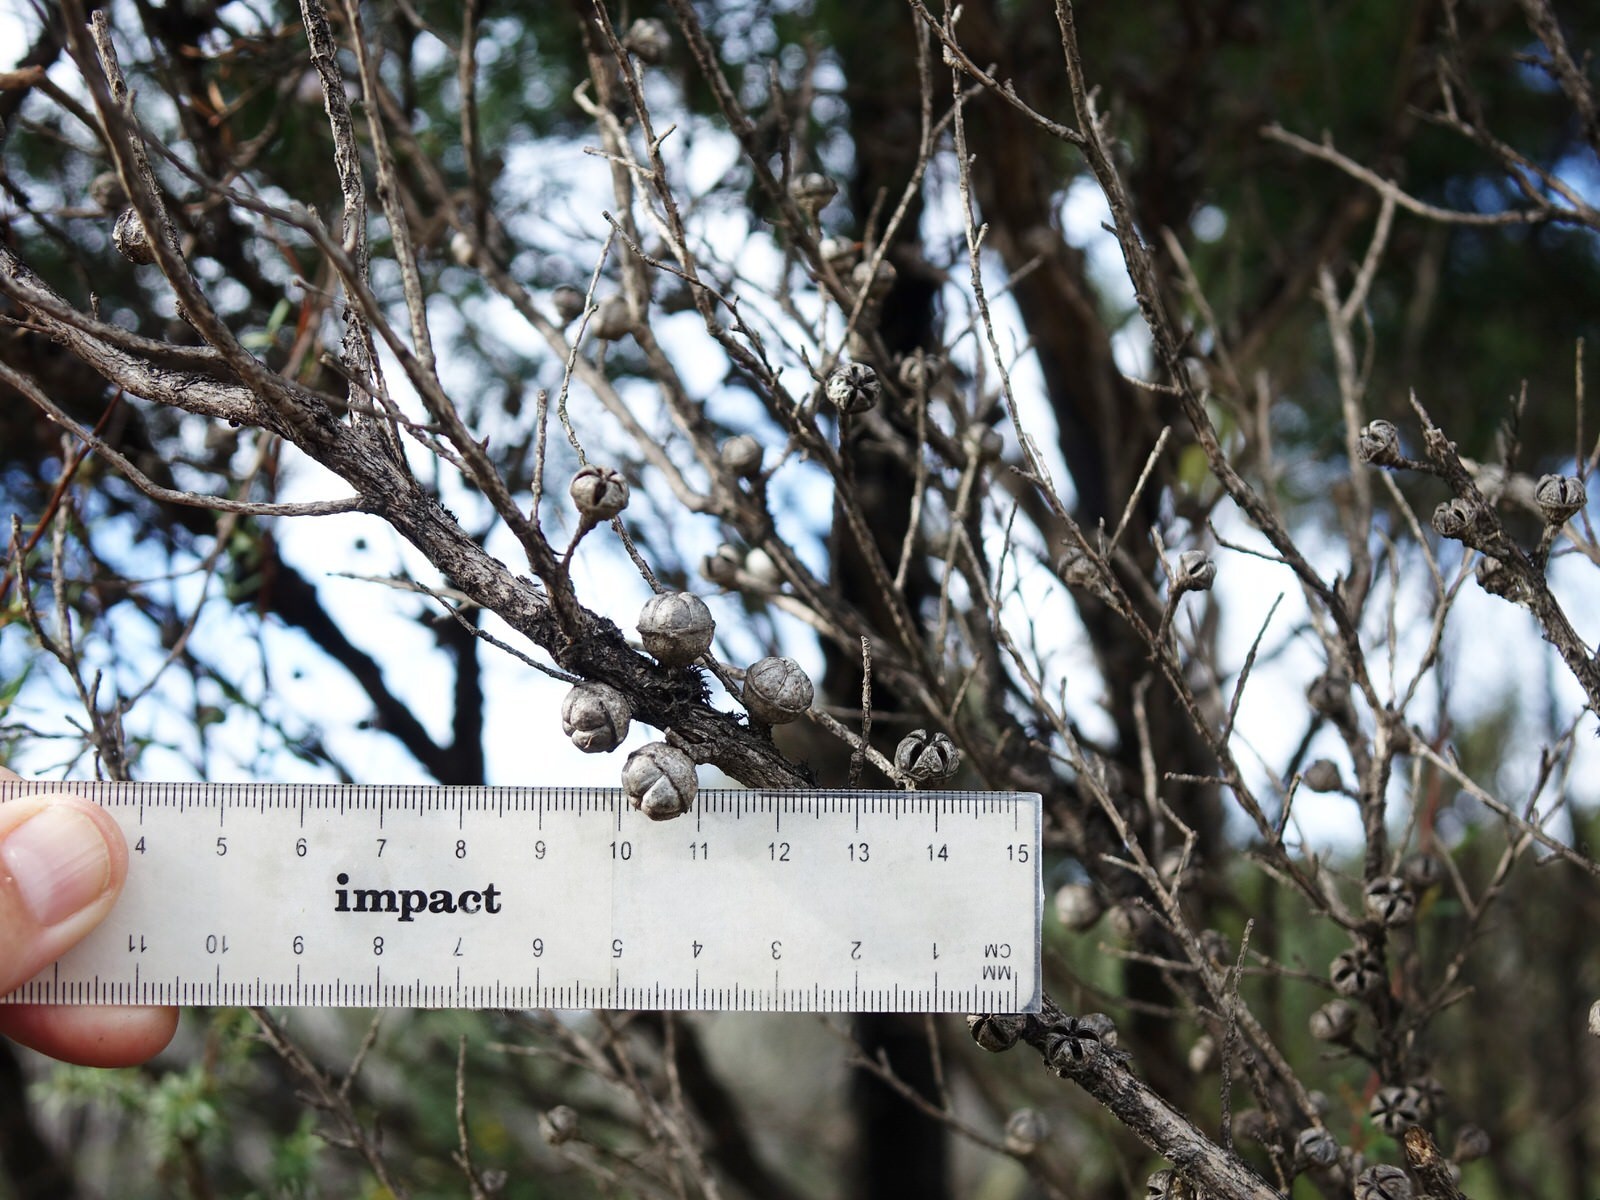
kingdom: Plantae
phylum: Tracheophyta
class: Magnoliopsida
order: Myrtales
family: Myrtaceae
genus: Leptospermum
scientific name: Leptospermum scoparium
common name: Broom tea-tree
